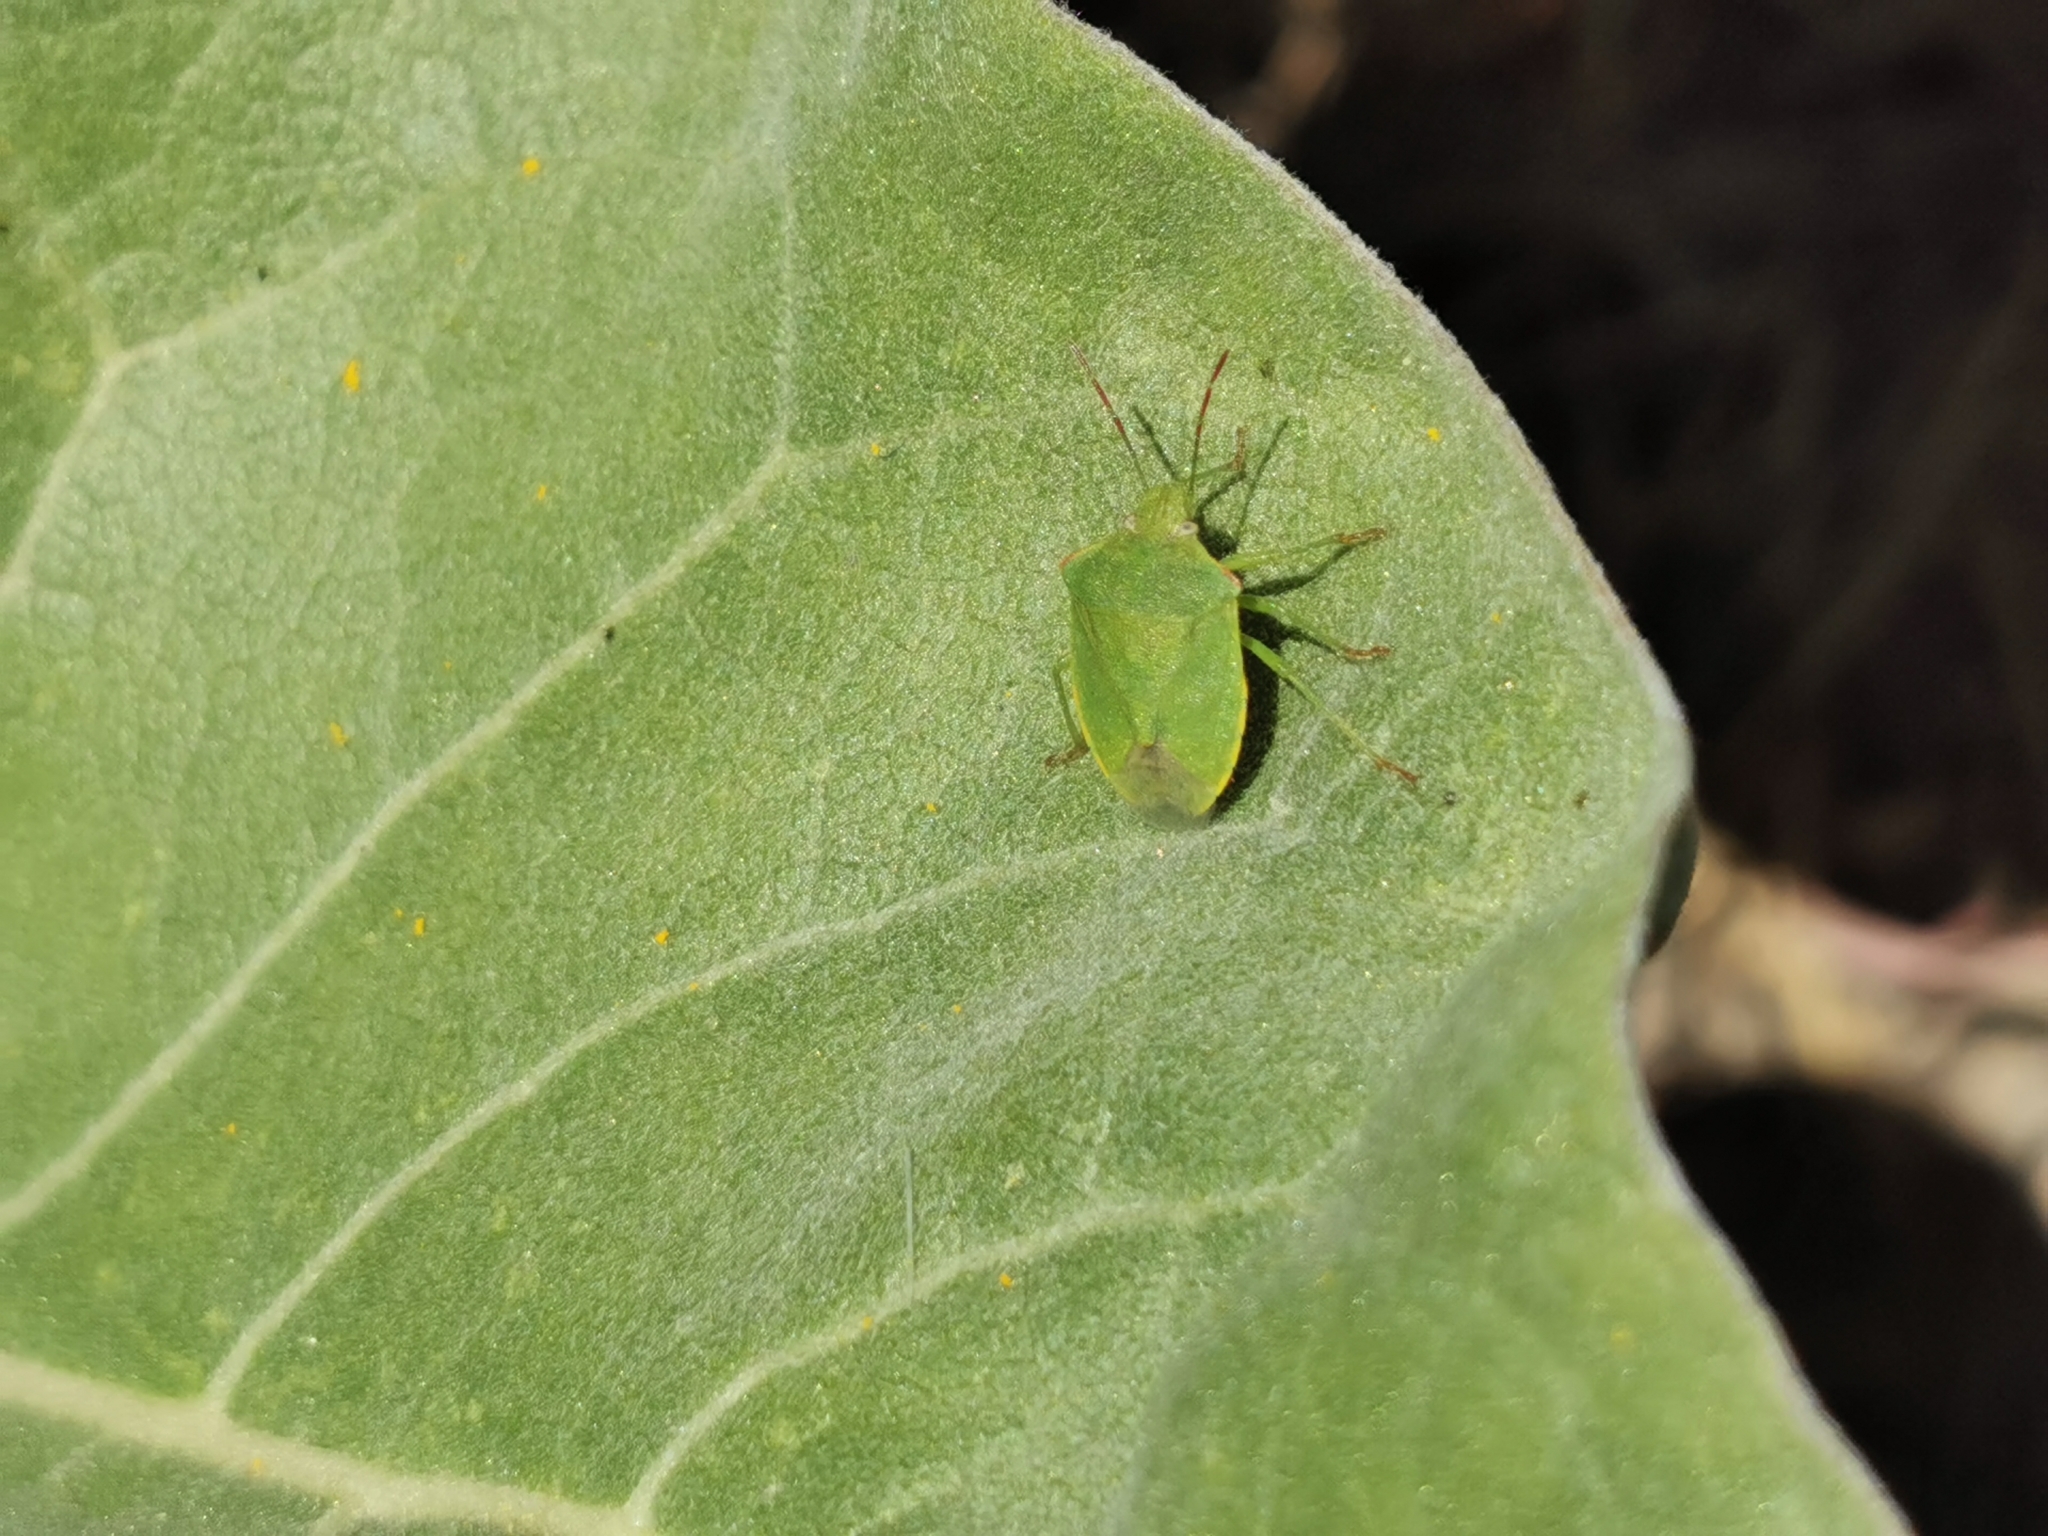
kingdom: Animalia
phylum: Arthropoda
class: Insecta
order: Hemiptera
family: Pentatomidae
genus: Thyanta
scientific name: Thyanta pallidovirens
